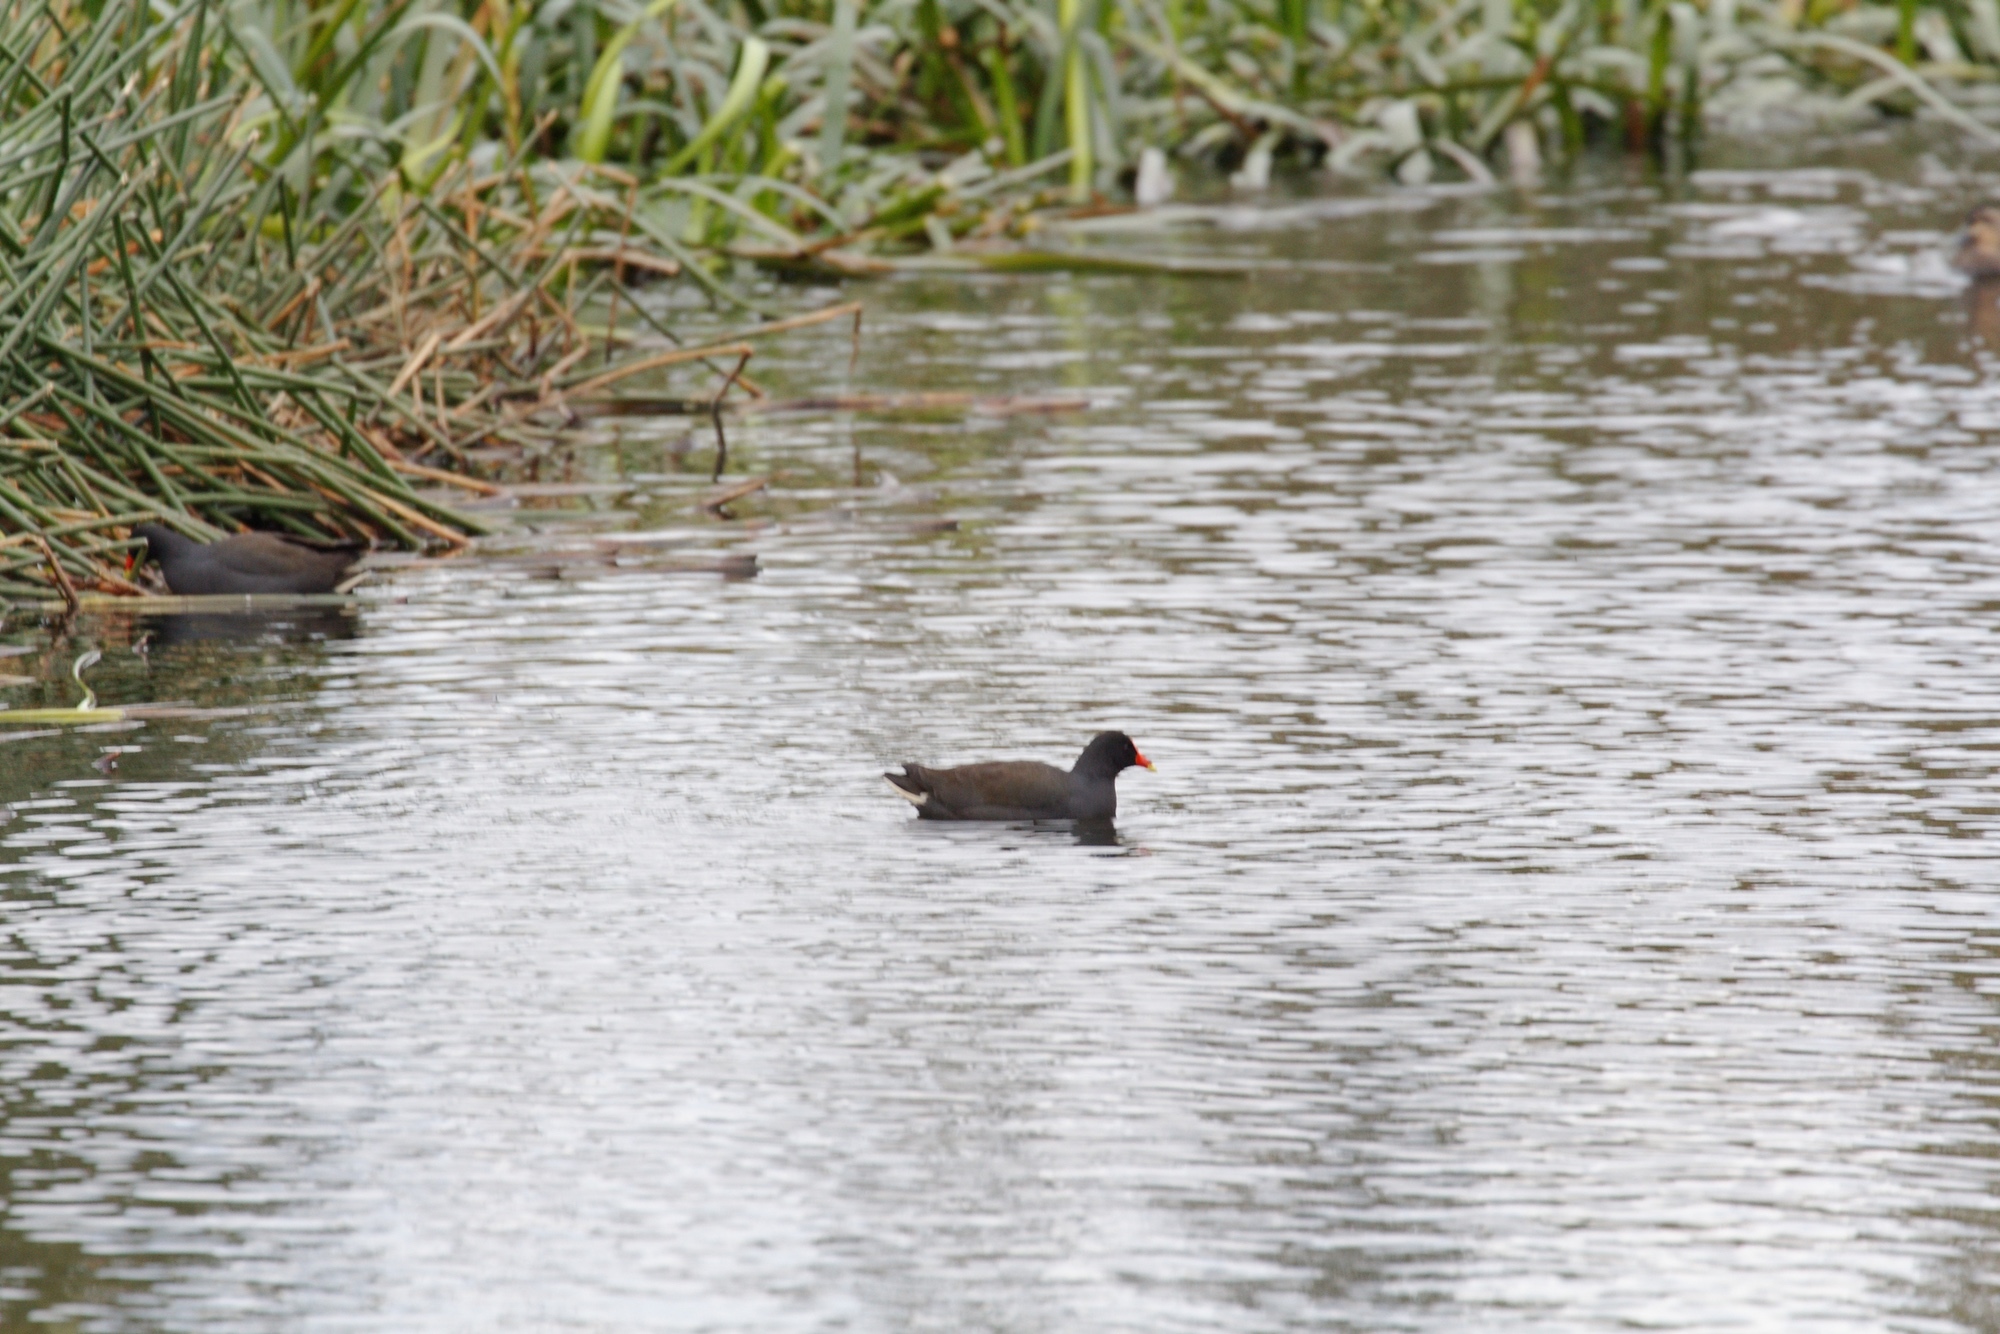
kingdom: Animalia
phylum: Chordata
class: Aves
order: Gruiformes
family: Rallidae
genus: Gallinula
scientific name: Gallinula tenebrosa
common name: Dusky moorhen
